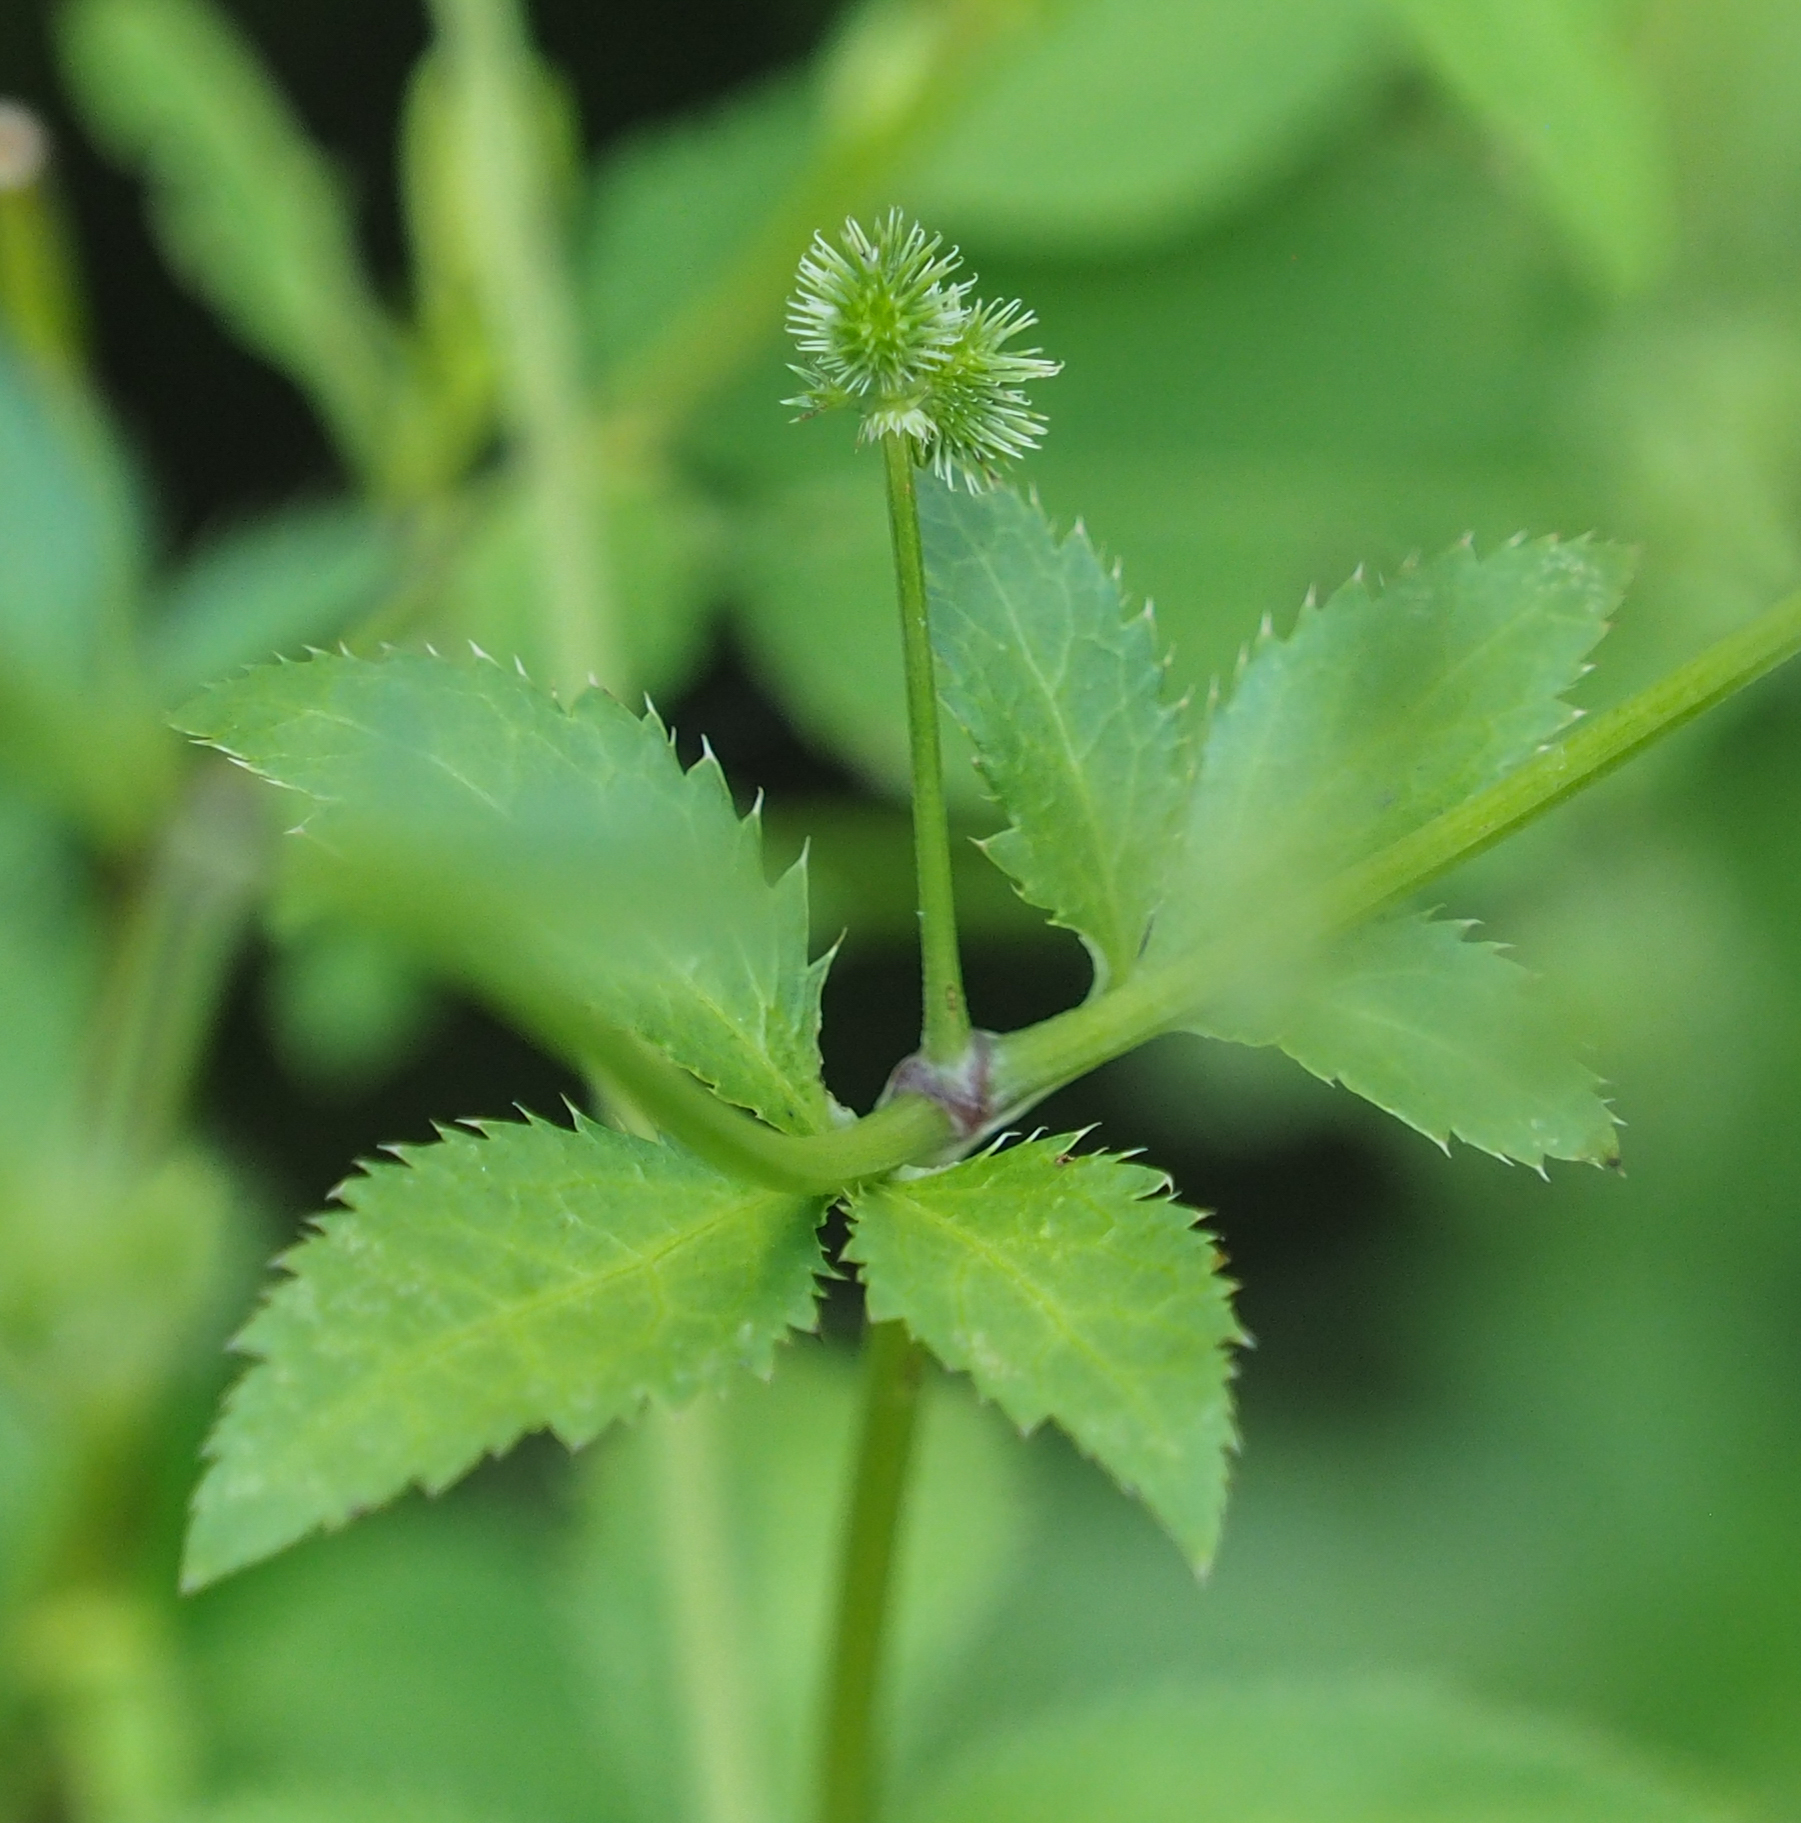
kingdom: Plantae
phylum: Tracheophyta
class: Magnoliopsida
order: Apiales
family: Apiaceae
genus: Sanicula
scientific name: Sanicula canadensis
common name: Canada sanicle
